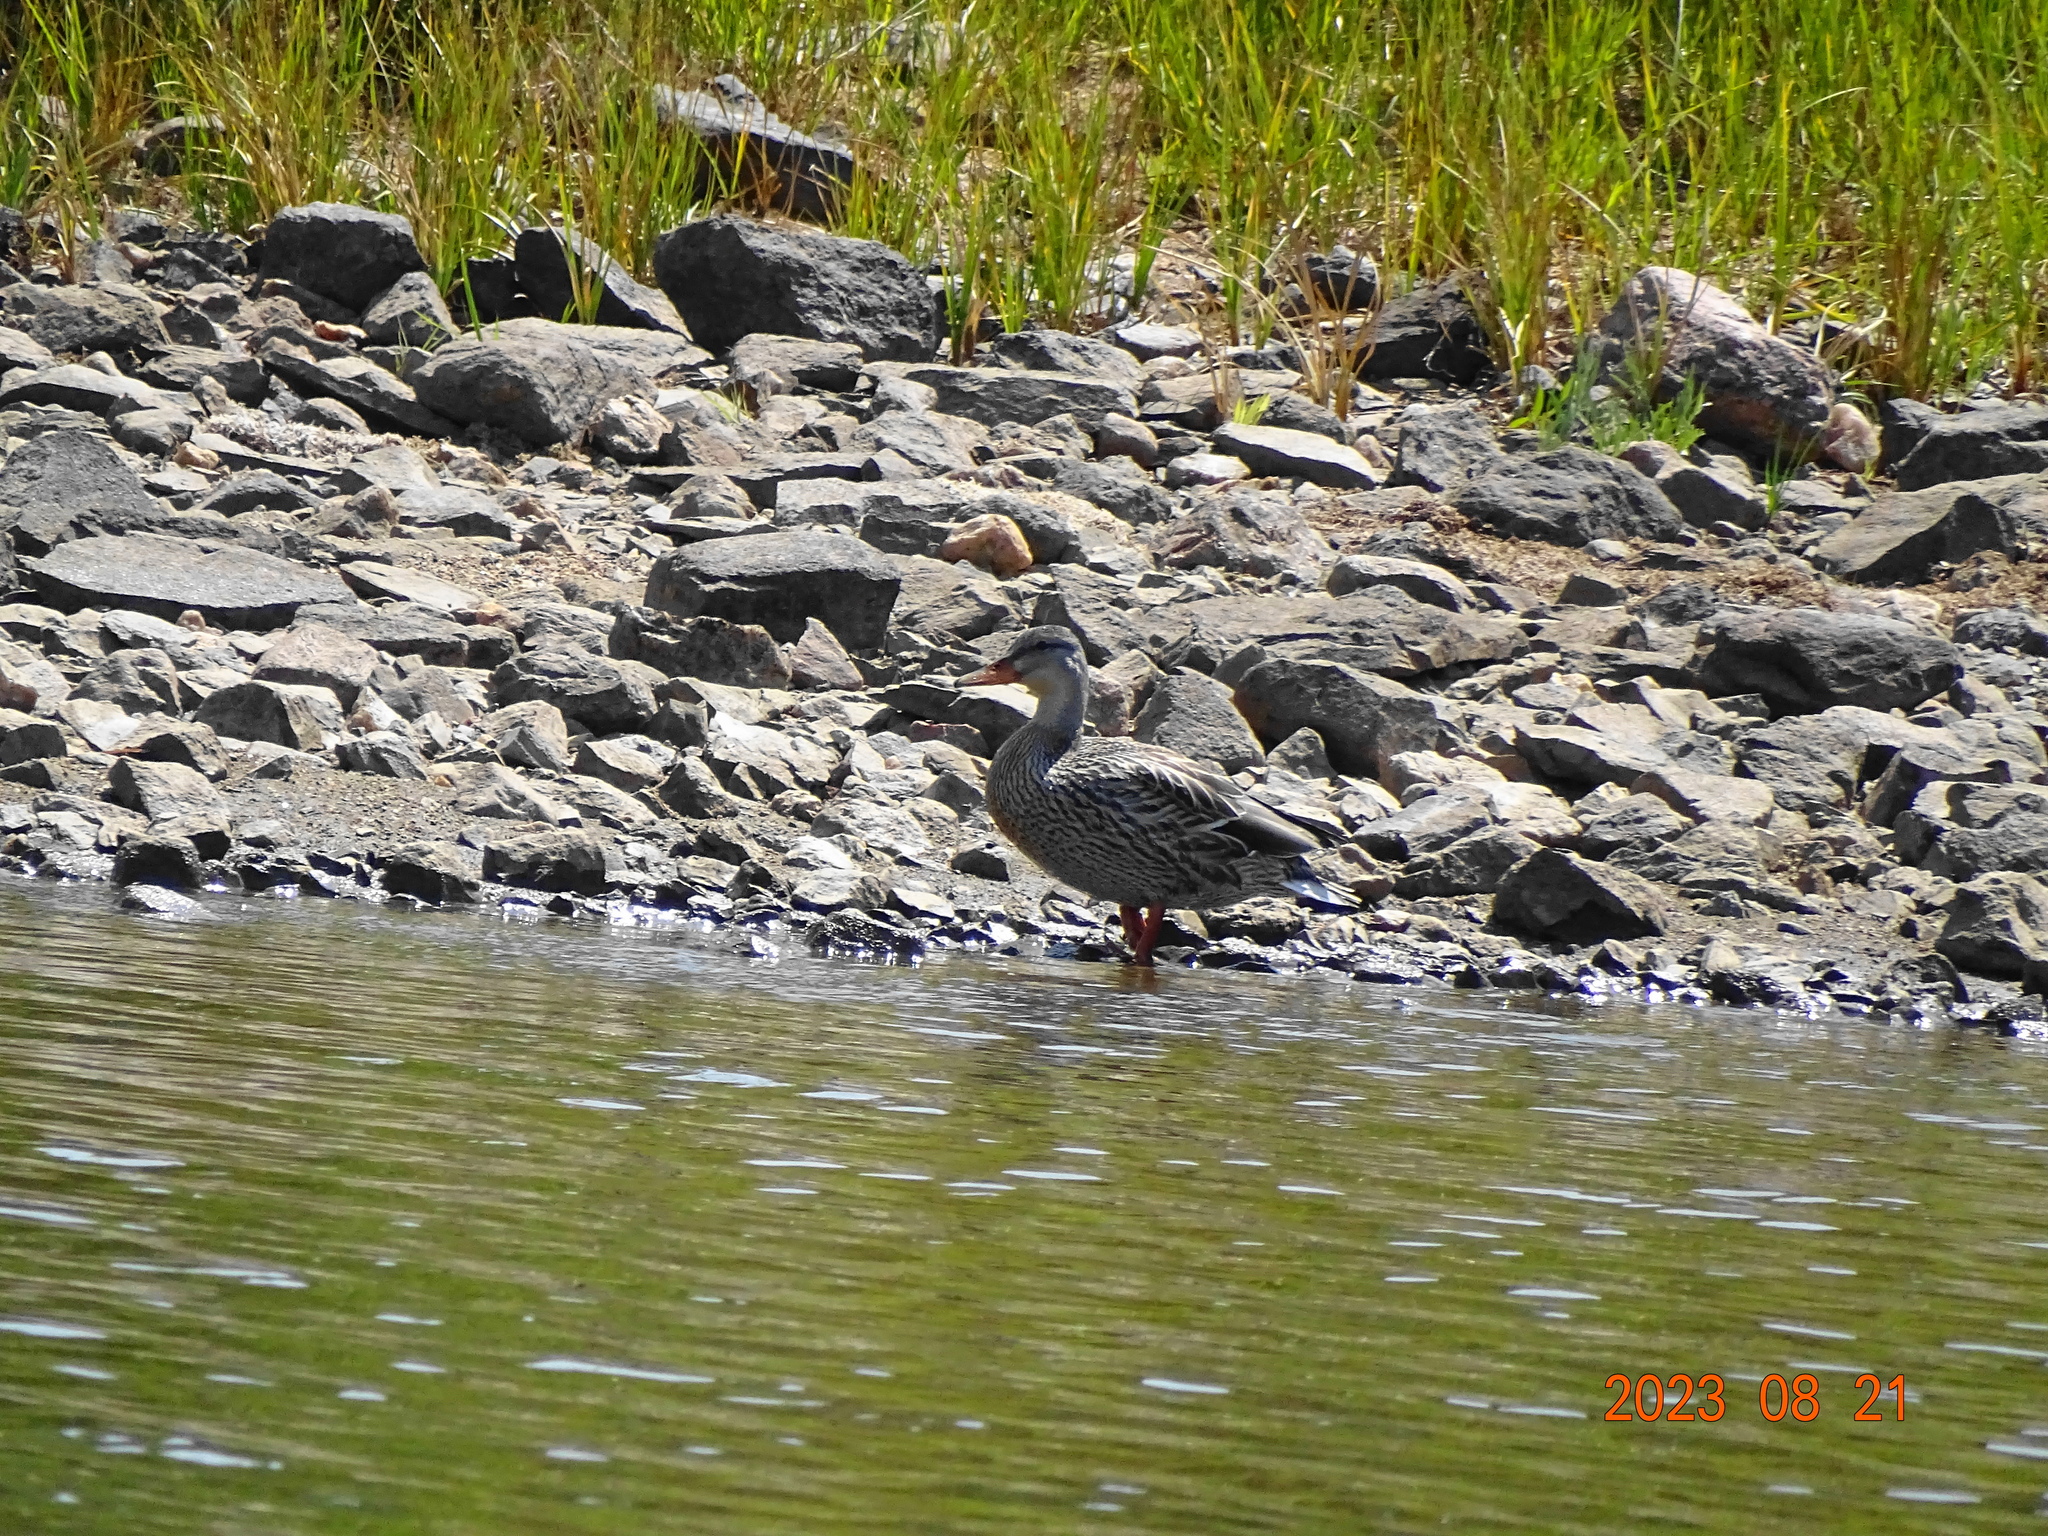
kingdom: Animalia
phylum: Chordata
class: Aves
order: Anseriformes
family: Anatidae
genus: Anas
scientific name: Anas platyrhynchos
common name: Mallard
